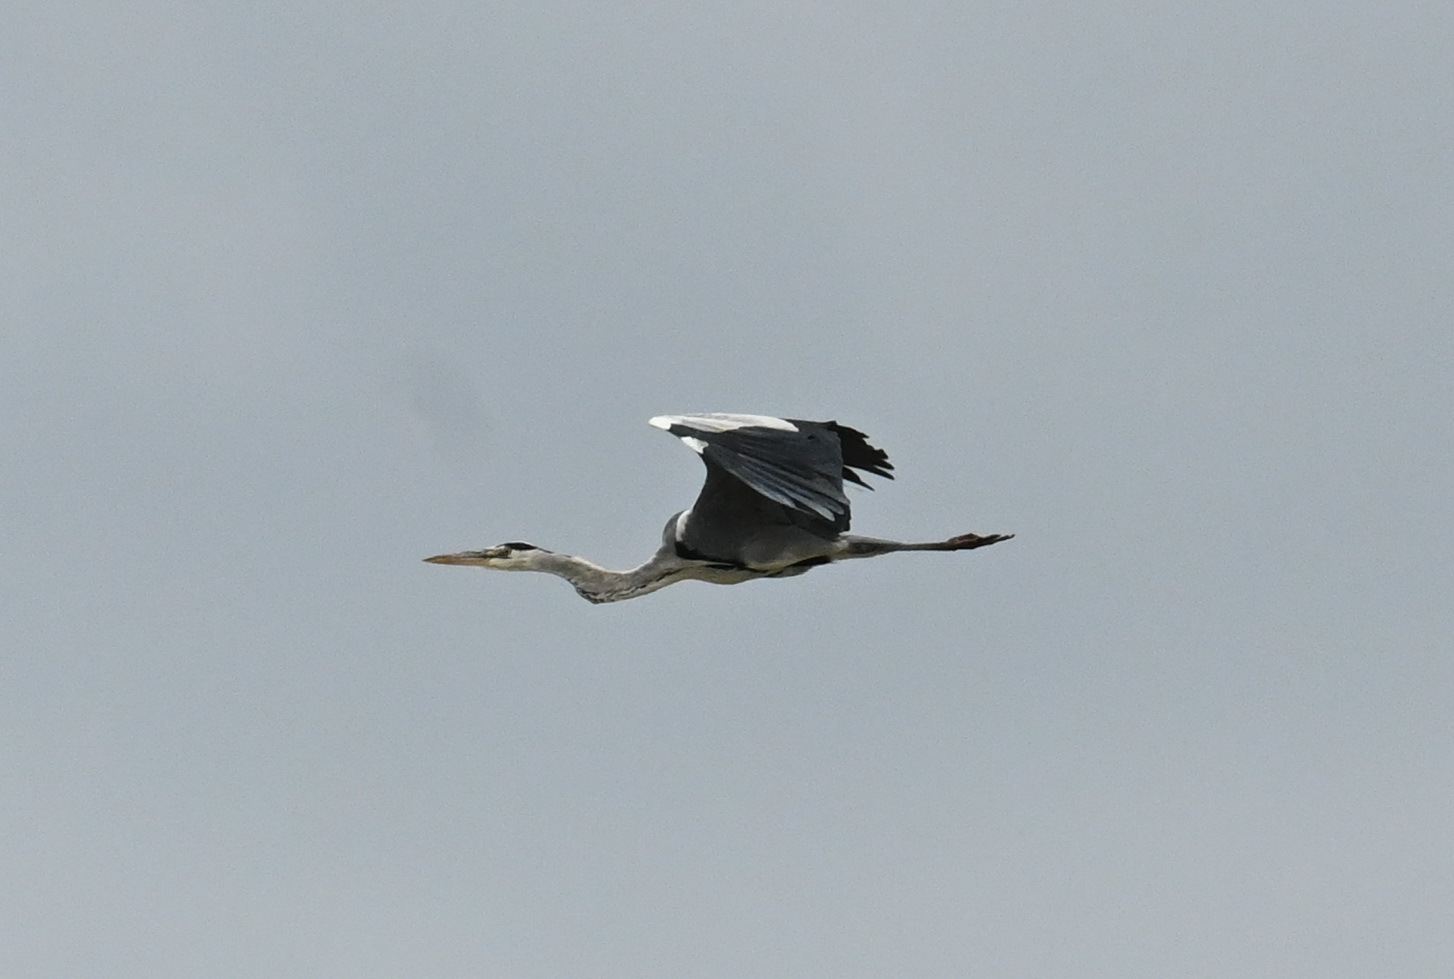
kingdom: Animalia
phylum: Chordata
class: Aves
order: Pelecaniformes
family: Ardeidae
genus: Ardea
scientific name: Ardea cinerea
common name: Grey heron
